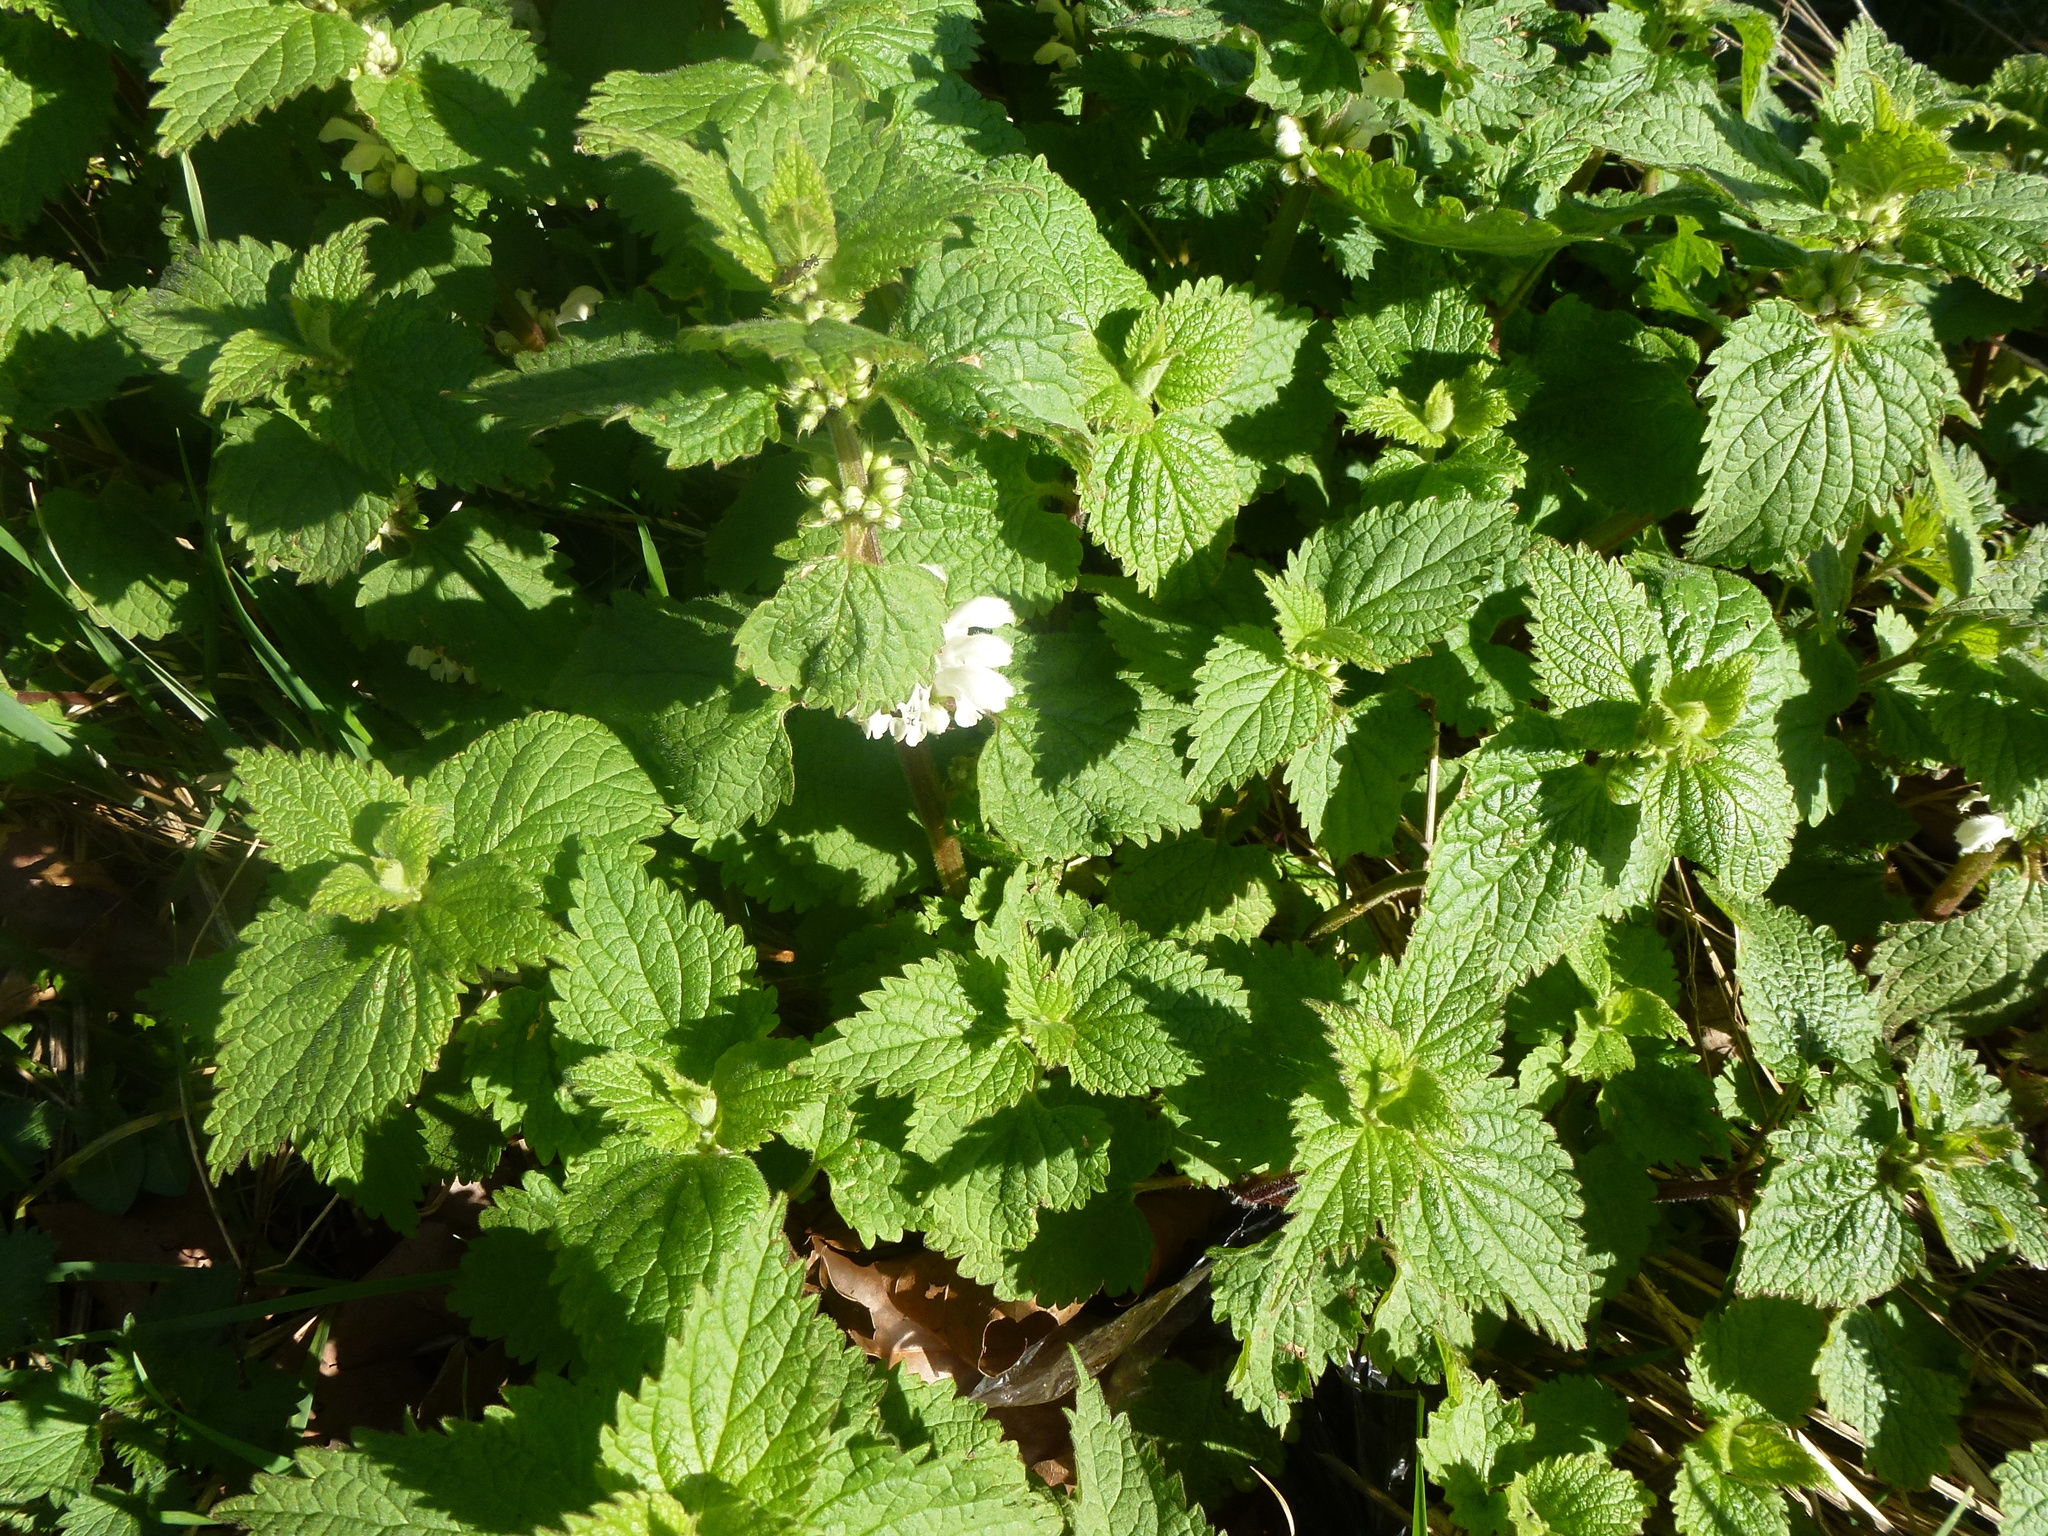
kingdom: Plantae
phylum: Tracheophyta
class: Magnoliopsida
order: Lamiales
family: Lamiaceae
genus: Lamium
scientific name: Lamium album
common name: White dead-nettle
